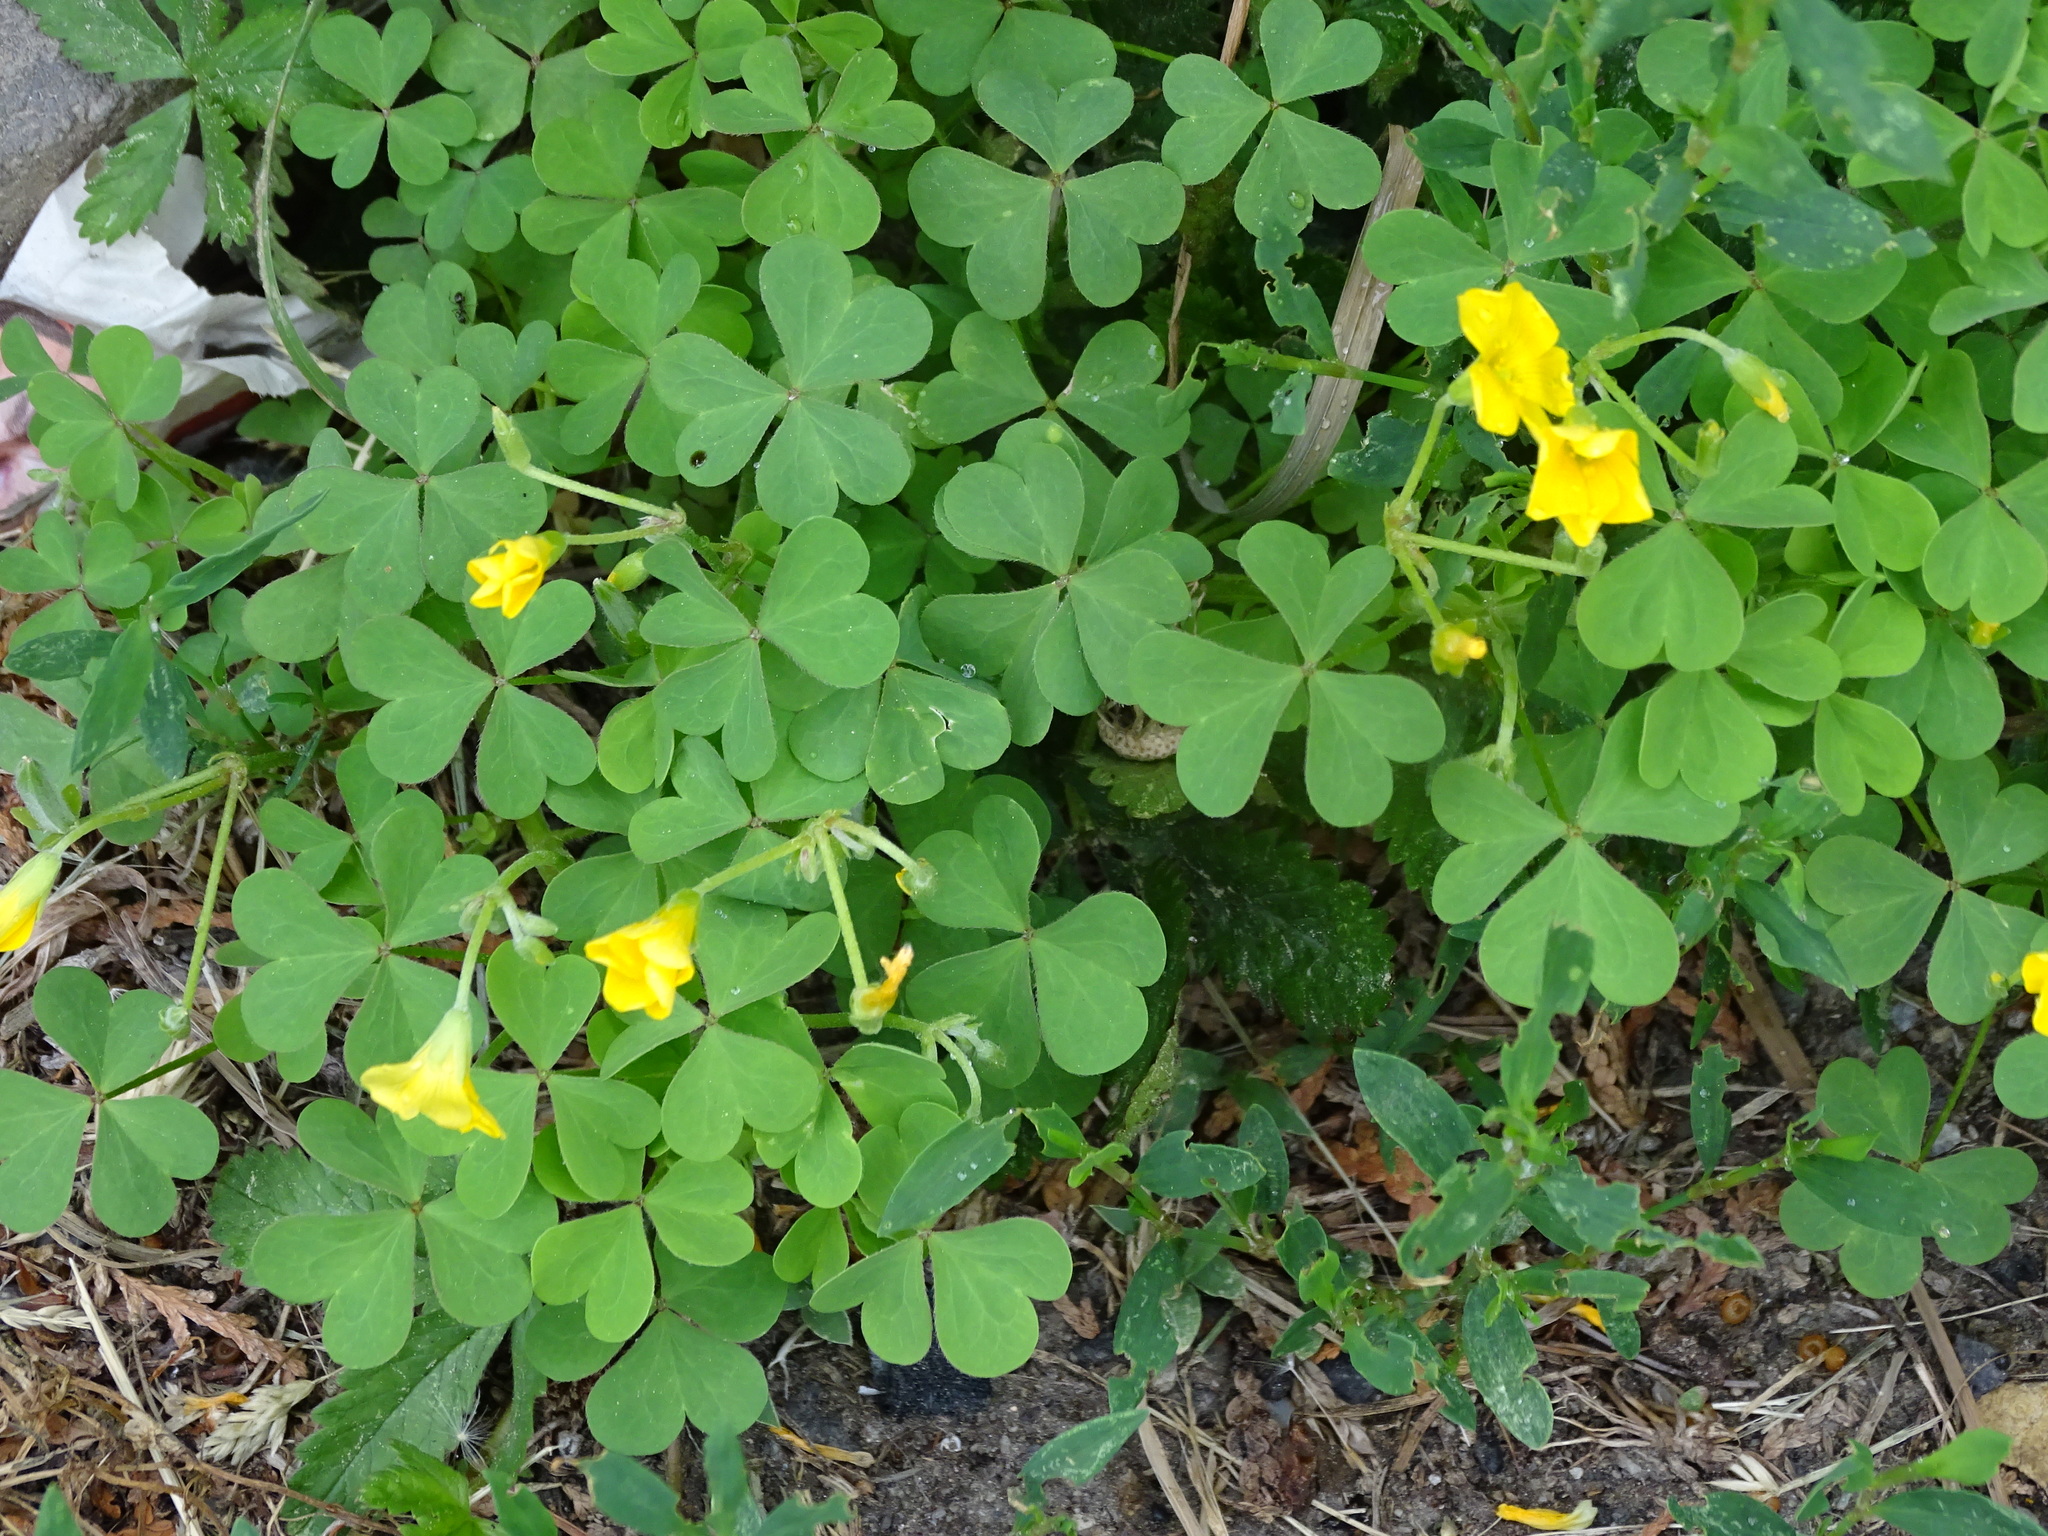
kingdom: Plantae
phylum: Tracheophyta
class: Magnoliopsida
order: Oxalidales
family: Oxalidaceae
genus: Oxalis
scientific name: Oxalis stricta
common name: Upright yellow-sorrel
